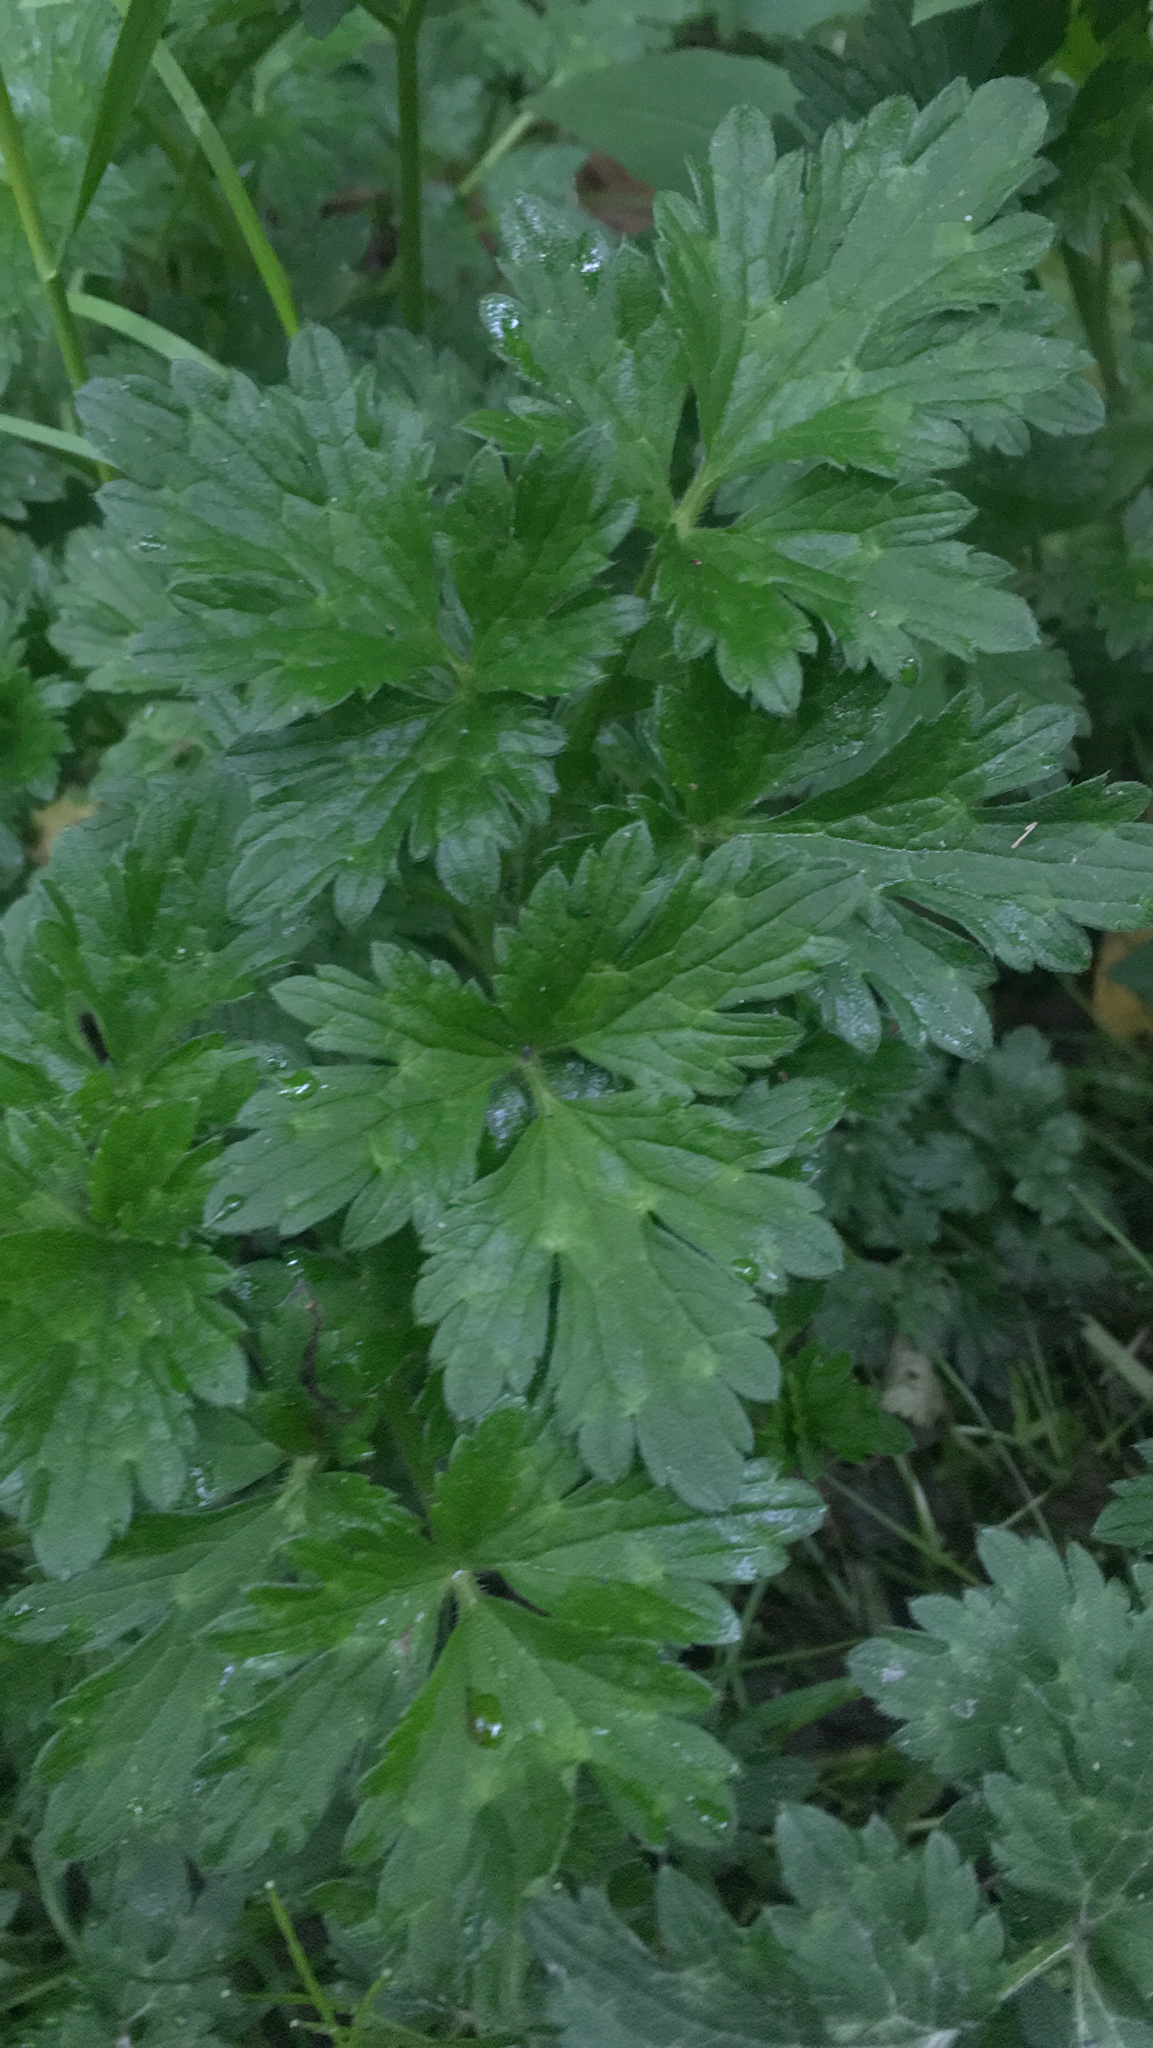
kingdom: Plantae
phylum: Tracheophyta
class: Magnoliopsida
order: Ranunculales
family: Ranunculaceae
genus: Ranunculus
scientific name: Ranunculus repens
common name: Creeping buttercup
